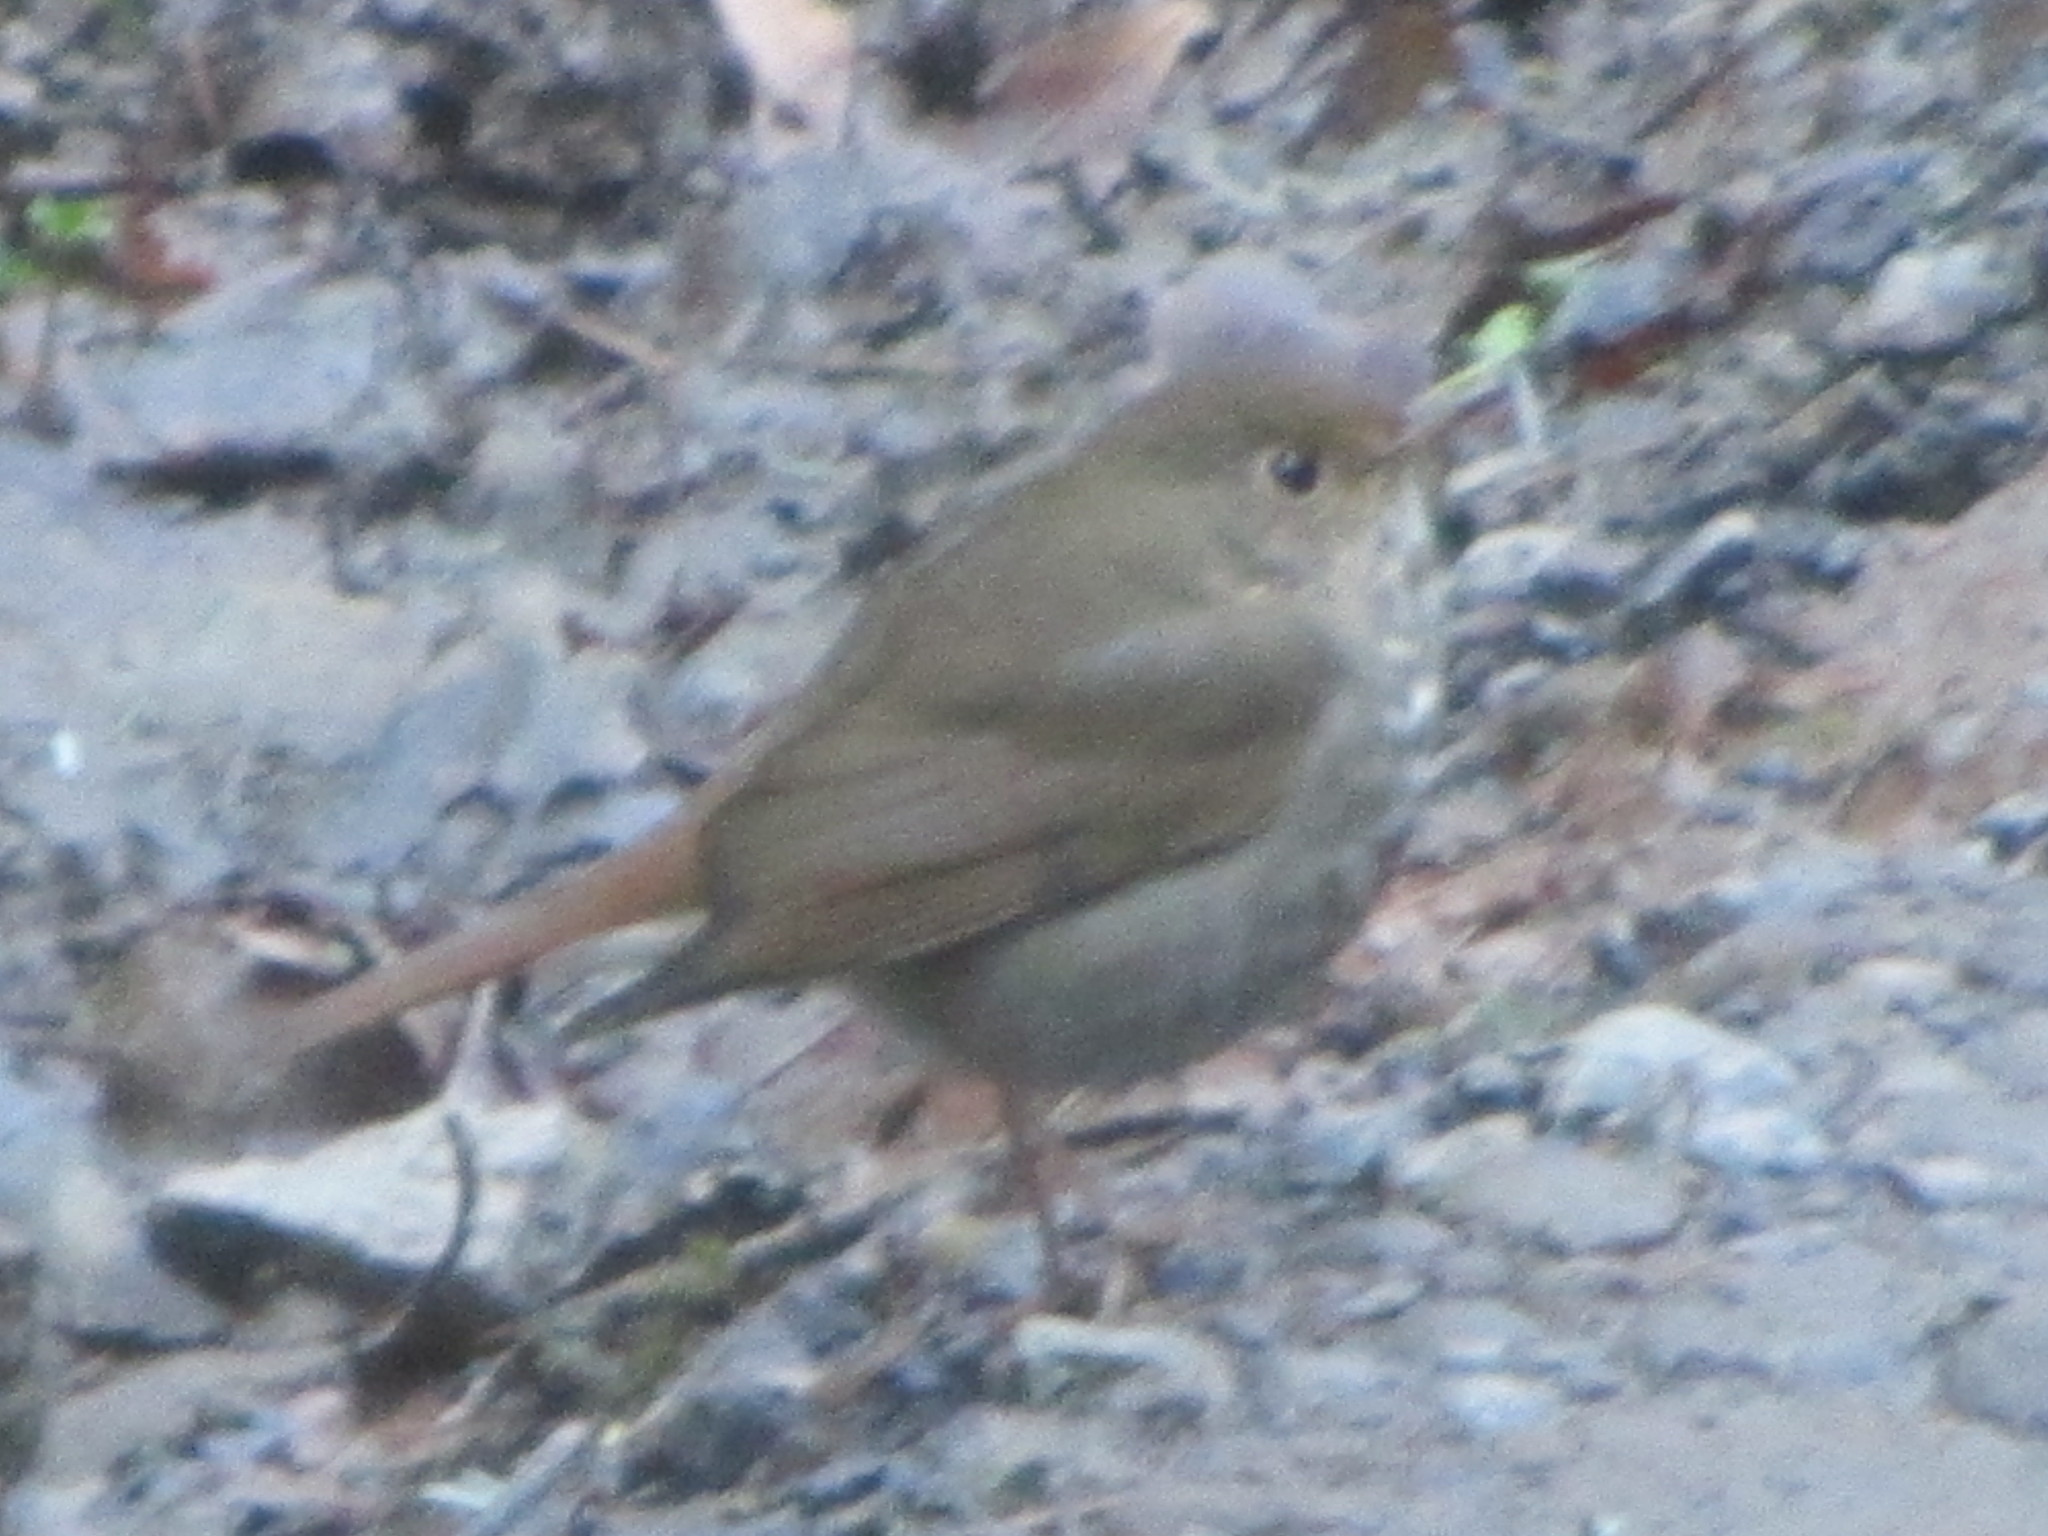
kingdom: Animalia
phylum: Chordata
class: Aves
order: Passeriformes
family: Turdidae
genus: Catharus
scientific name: Catharus guttatus
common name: Hermit thrush
